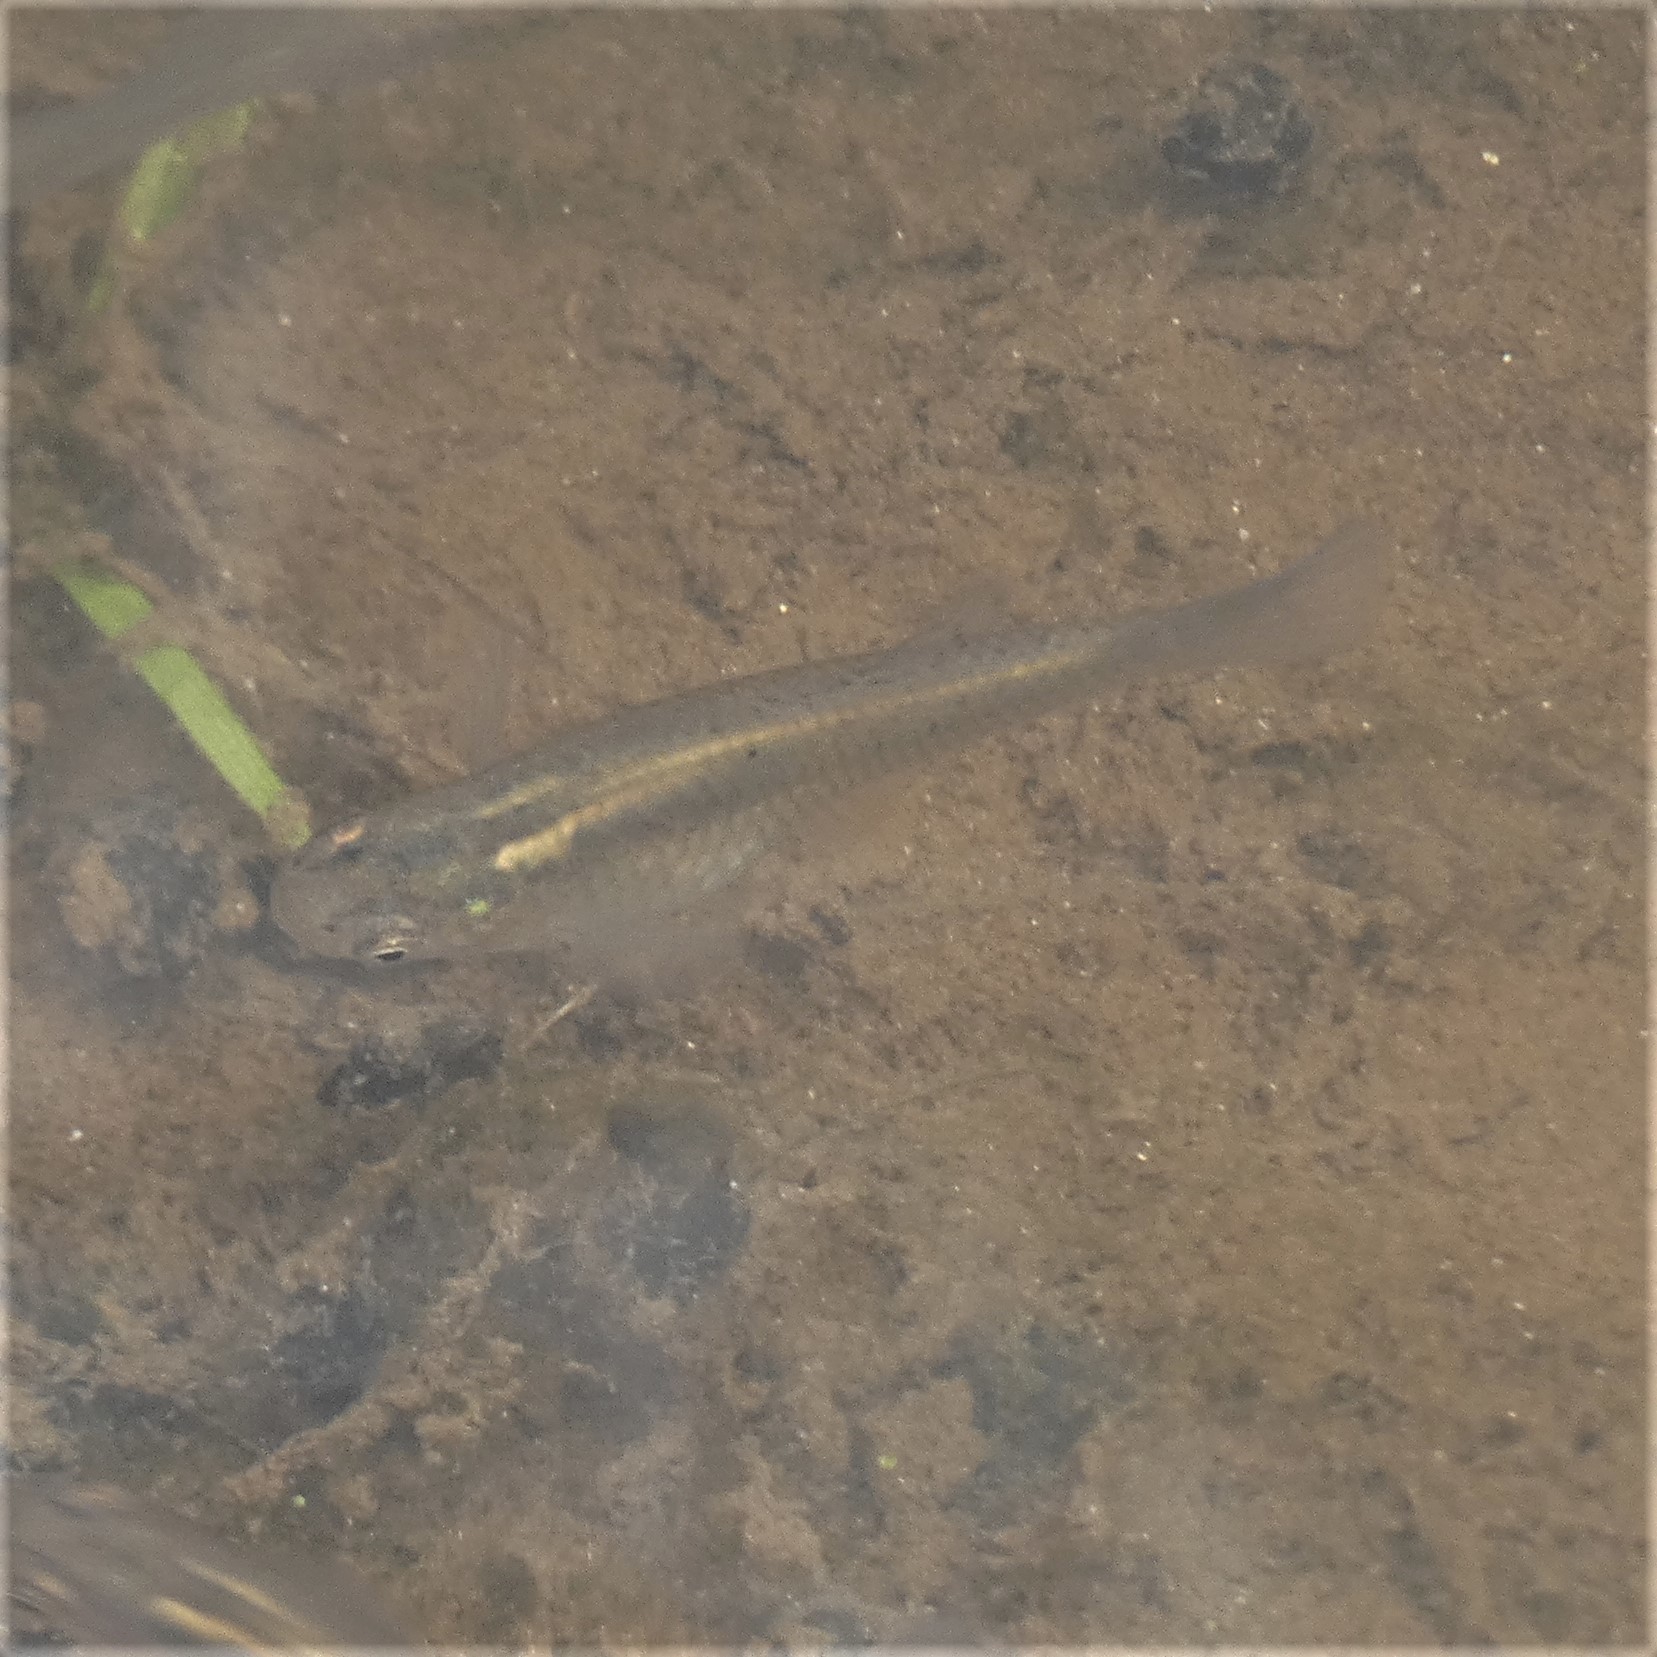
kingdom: Animalia
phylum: Chordata
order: Cyprinodontiformes
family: Poeciliidae
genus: Gambusia
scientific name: Gambusia holbrooki
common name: Eastern mosquitofish
